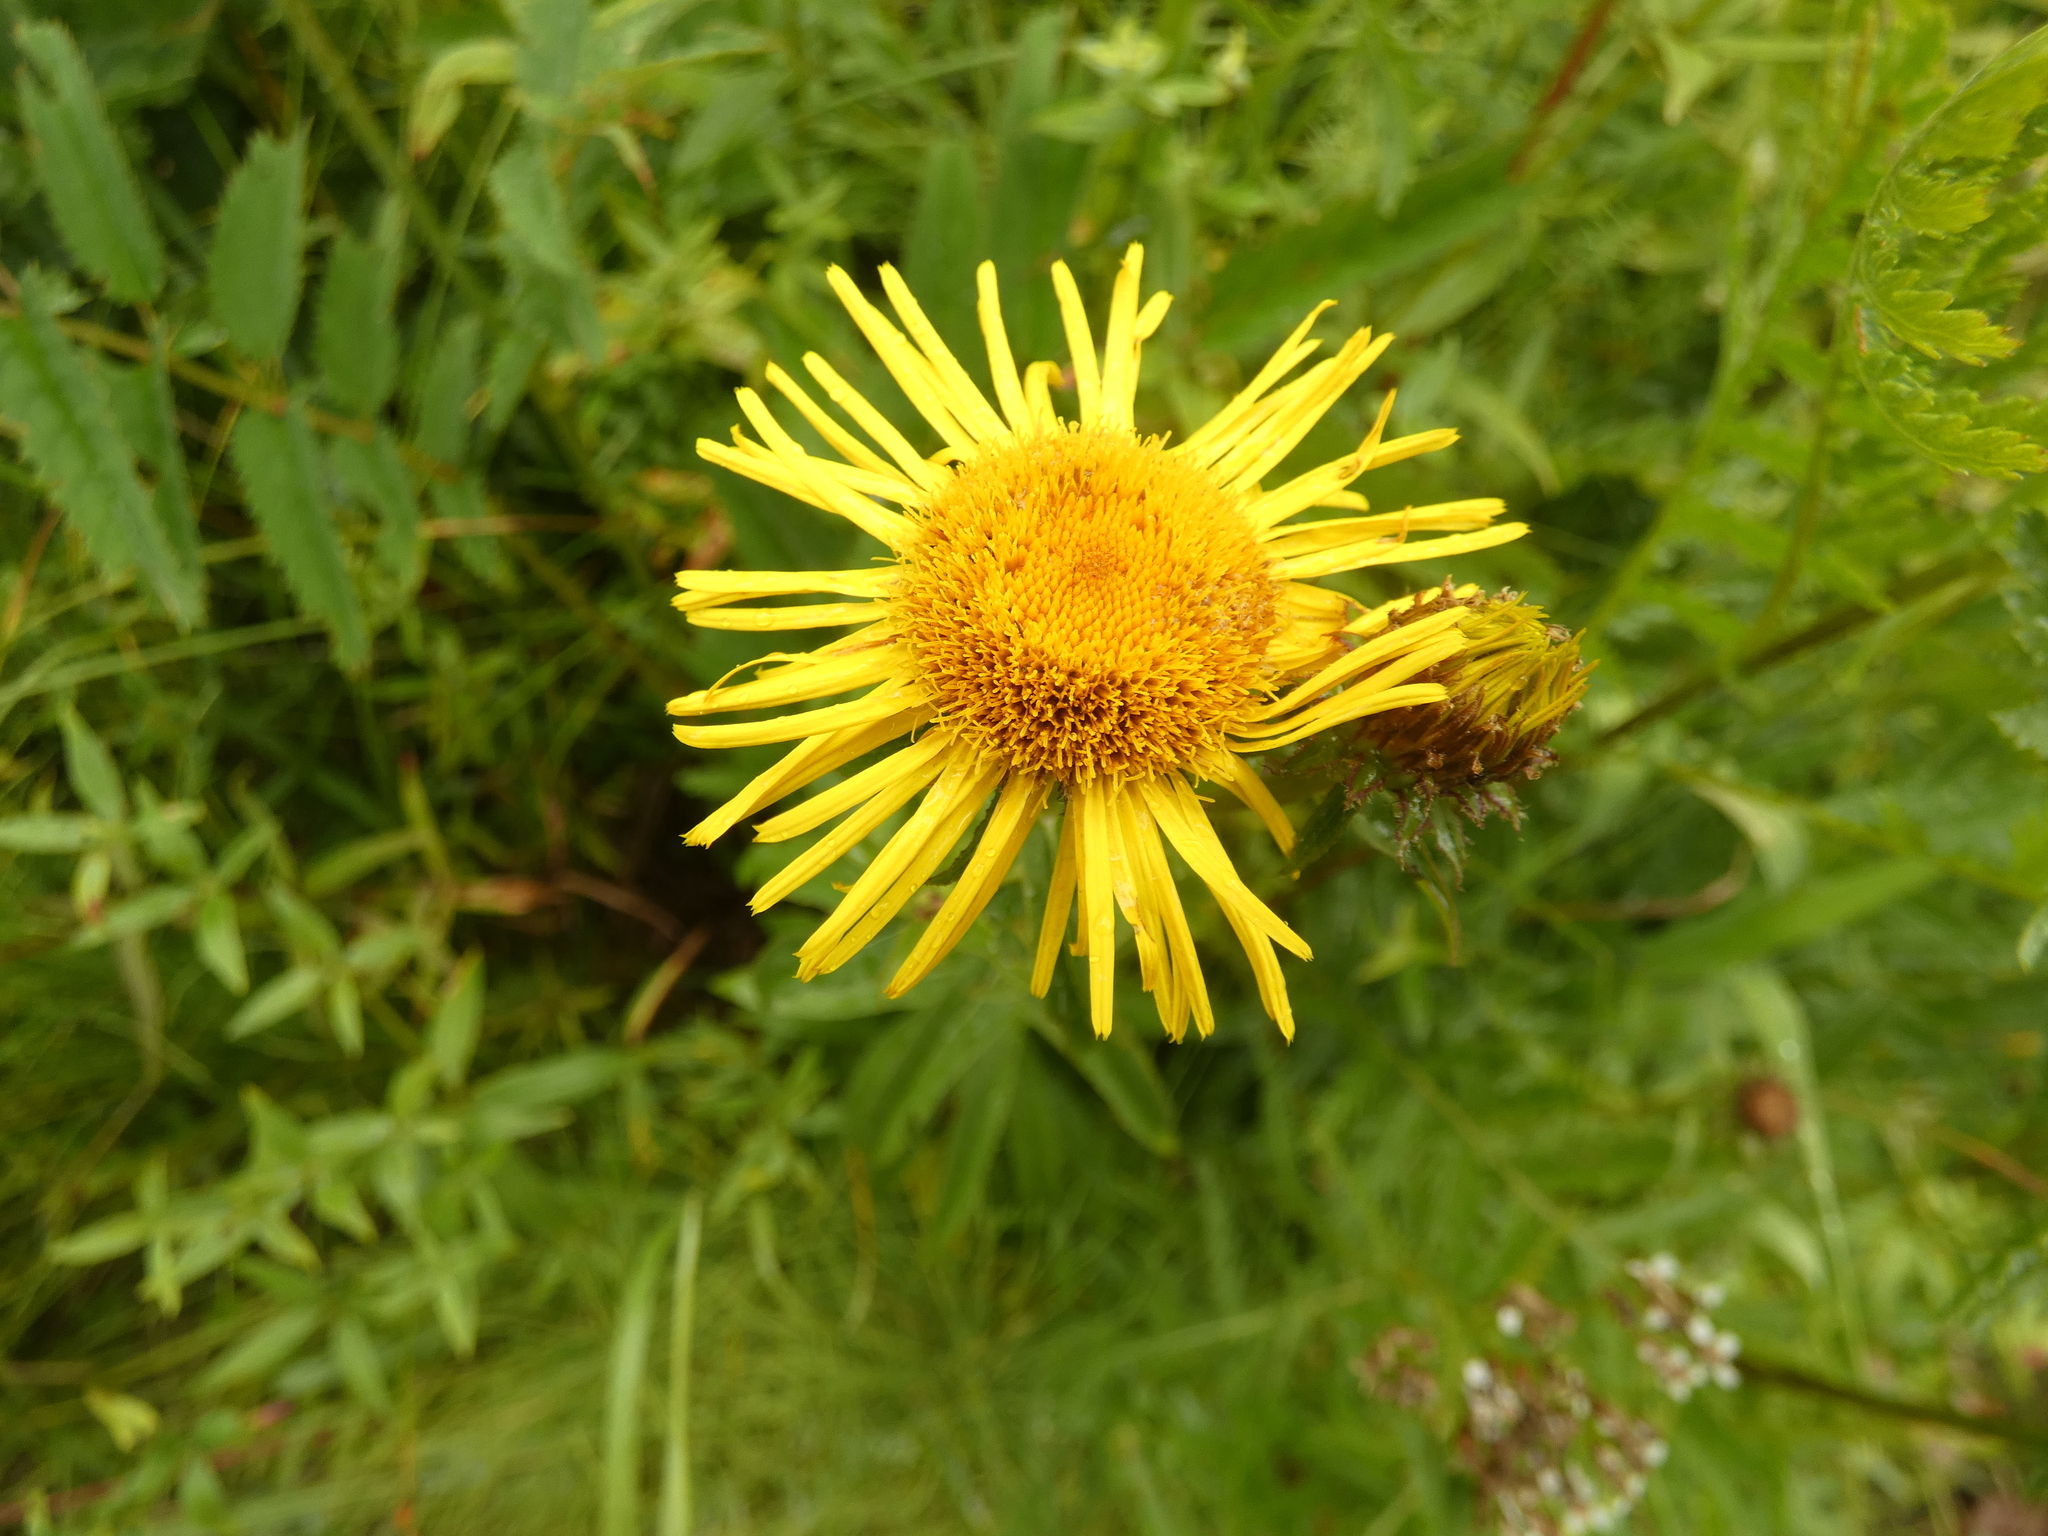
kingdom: Plantae
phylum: Tracheophyta
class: Magnoliopsida
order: Asterales
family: Asteraceae
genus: Pentanema
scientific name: Pentanema salicinum
